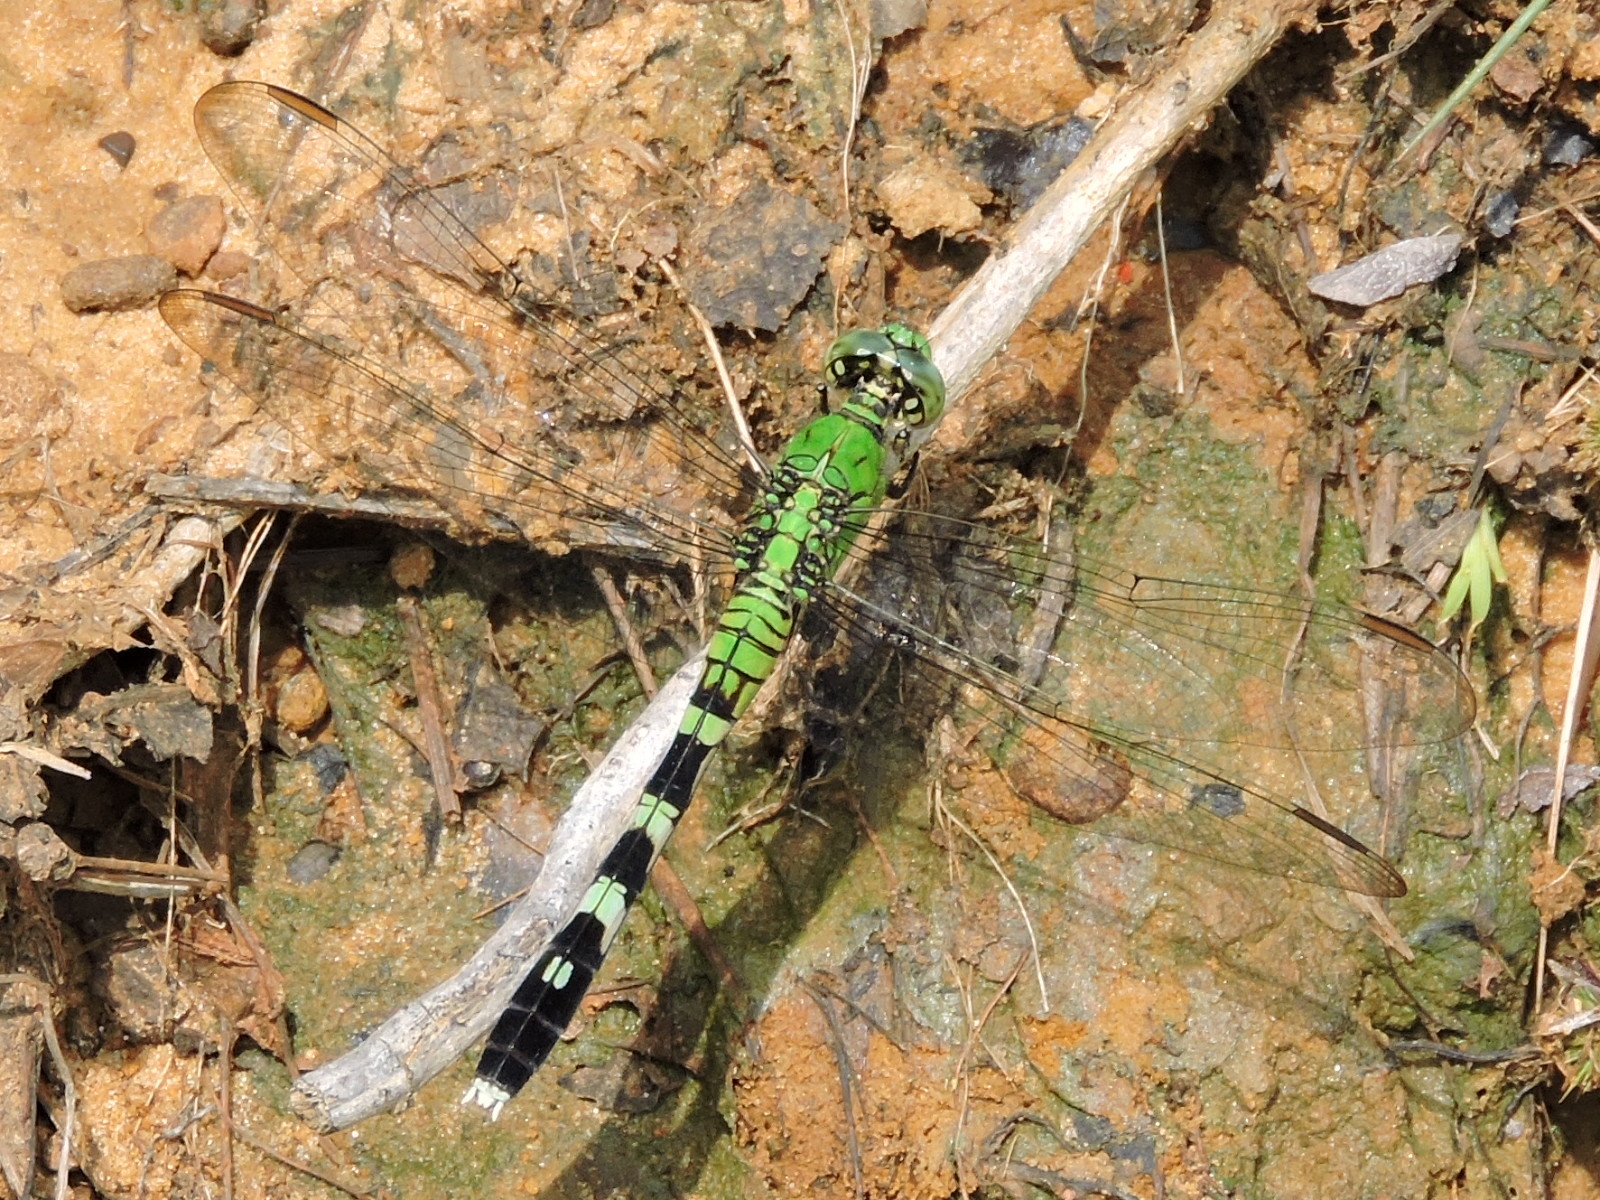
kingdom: Animalia
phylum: Arthropoda
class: Insecta
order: Odonata
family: Libellulidae
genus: Erythemis
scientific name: Erythemis simplicicollis
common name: Eastern pondhawk
